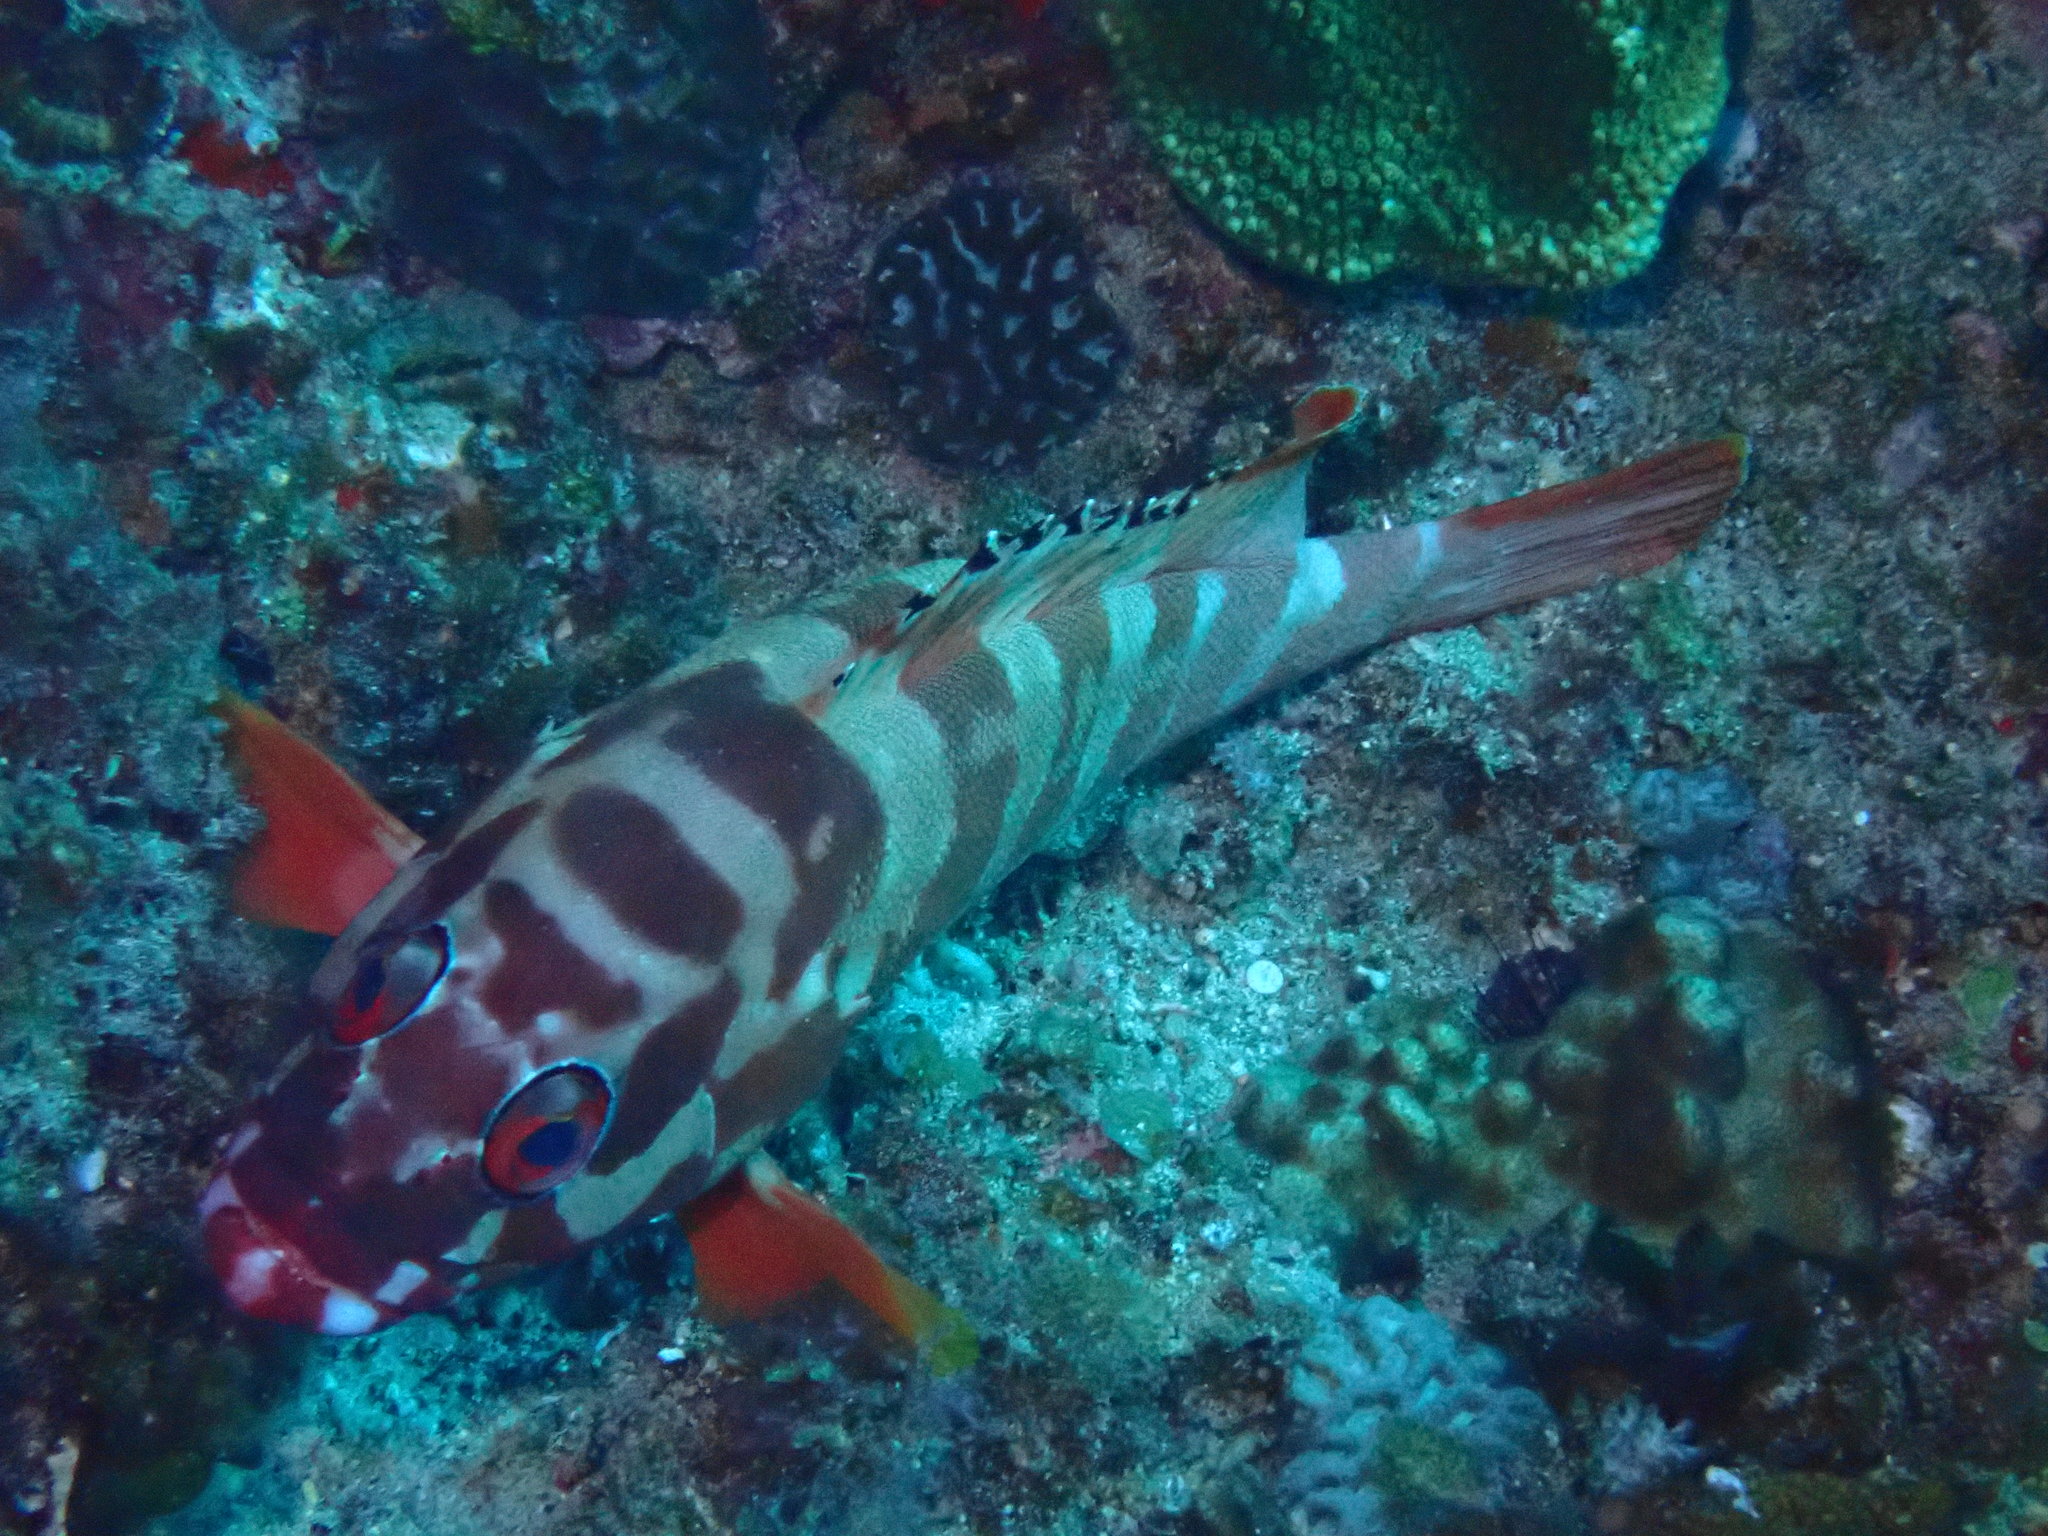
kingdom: Animalia
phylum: Chordata
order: Perciformes
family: Serranidae
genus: Epinephelus
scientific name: Epinephelus fasciatus
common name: Blacktip grouper
